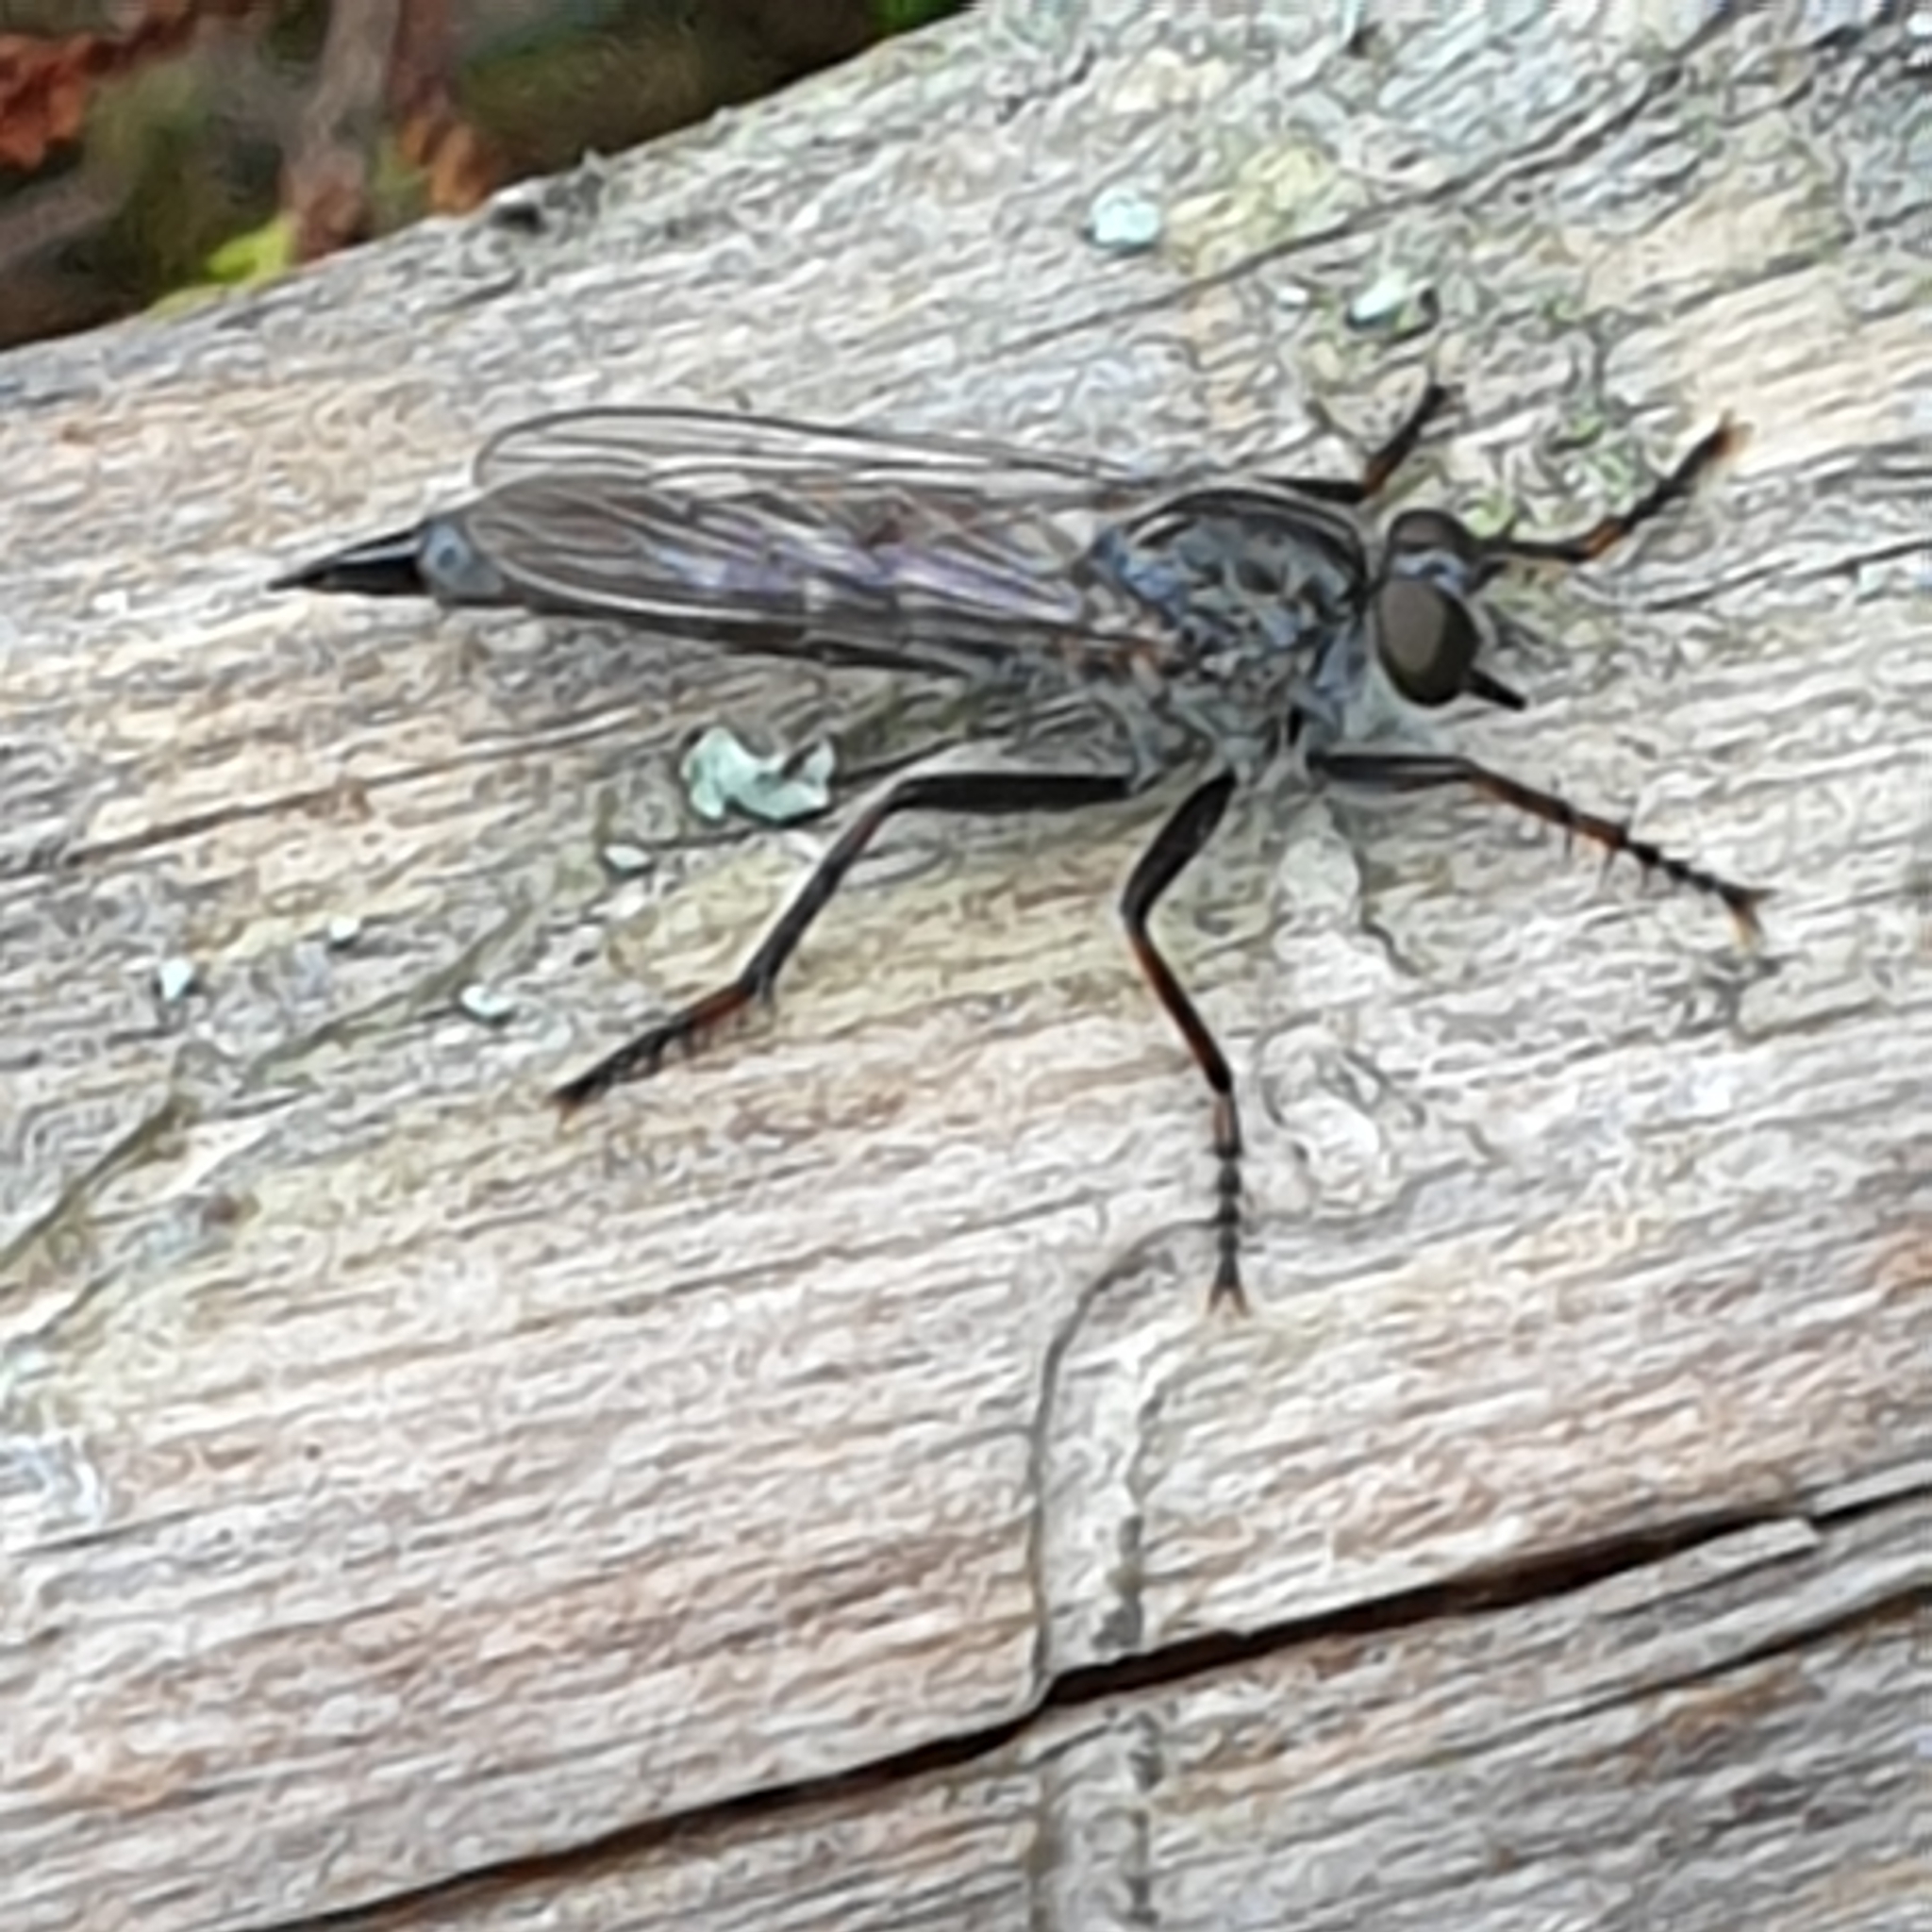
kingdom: Animalia
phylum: Arthropoda
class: Insecta
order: Diptera
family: Asilidae
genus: Machimus
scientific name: Machimus atricapillus
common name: Kite-tailed robberfly
